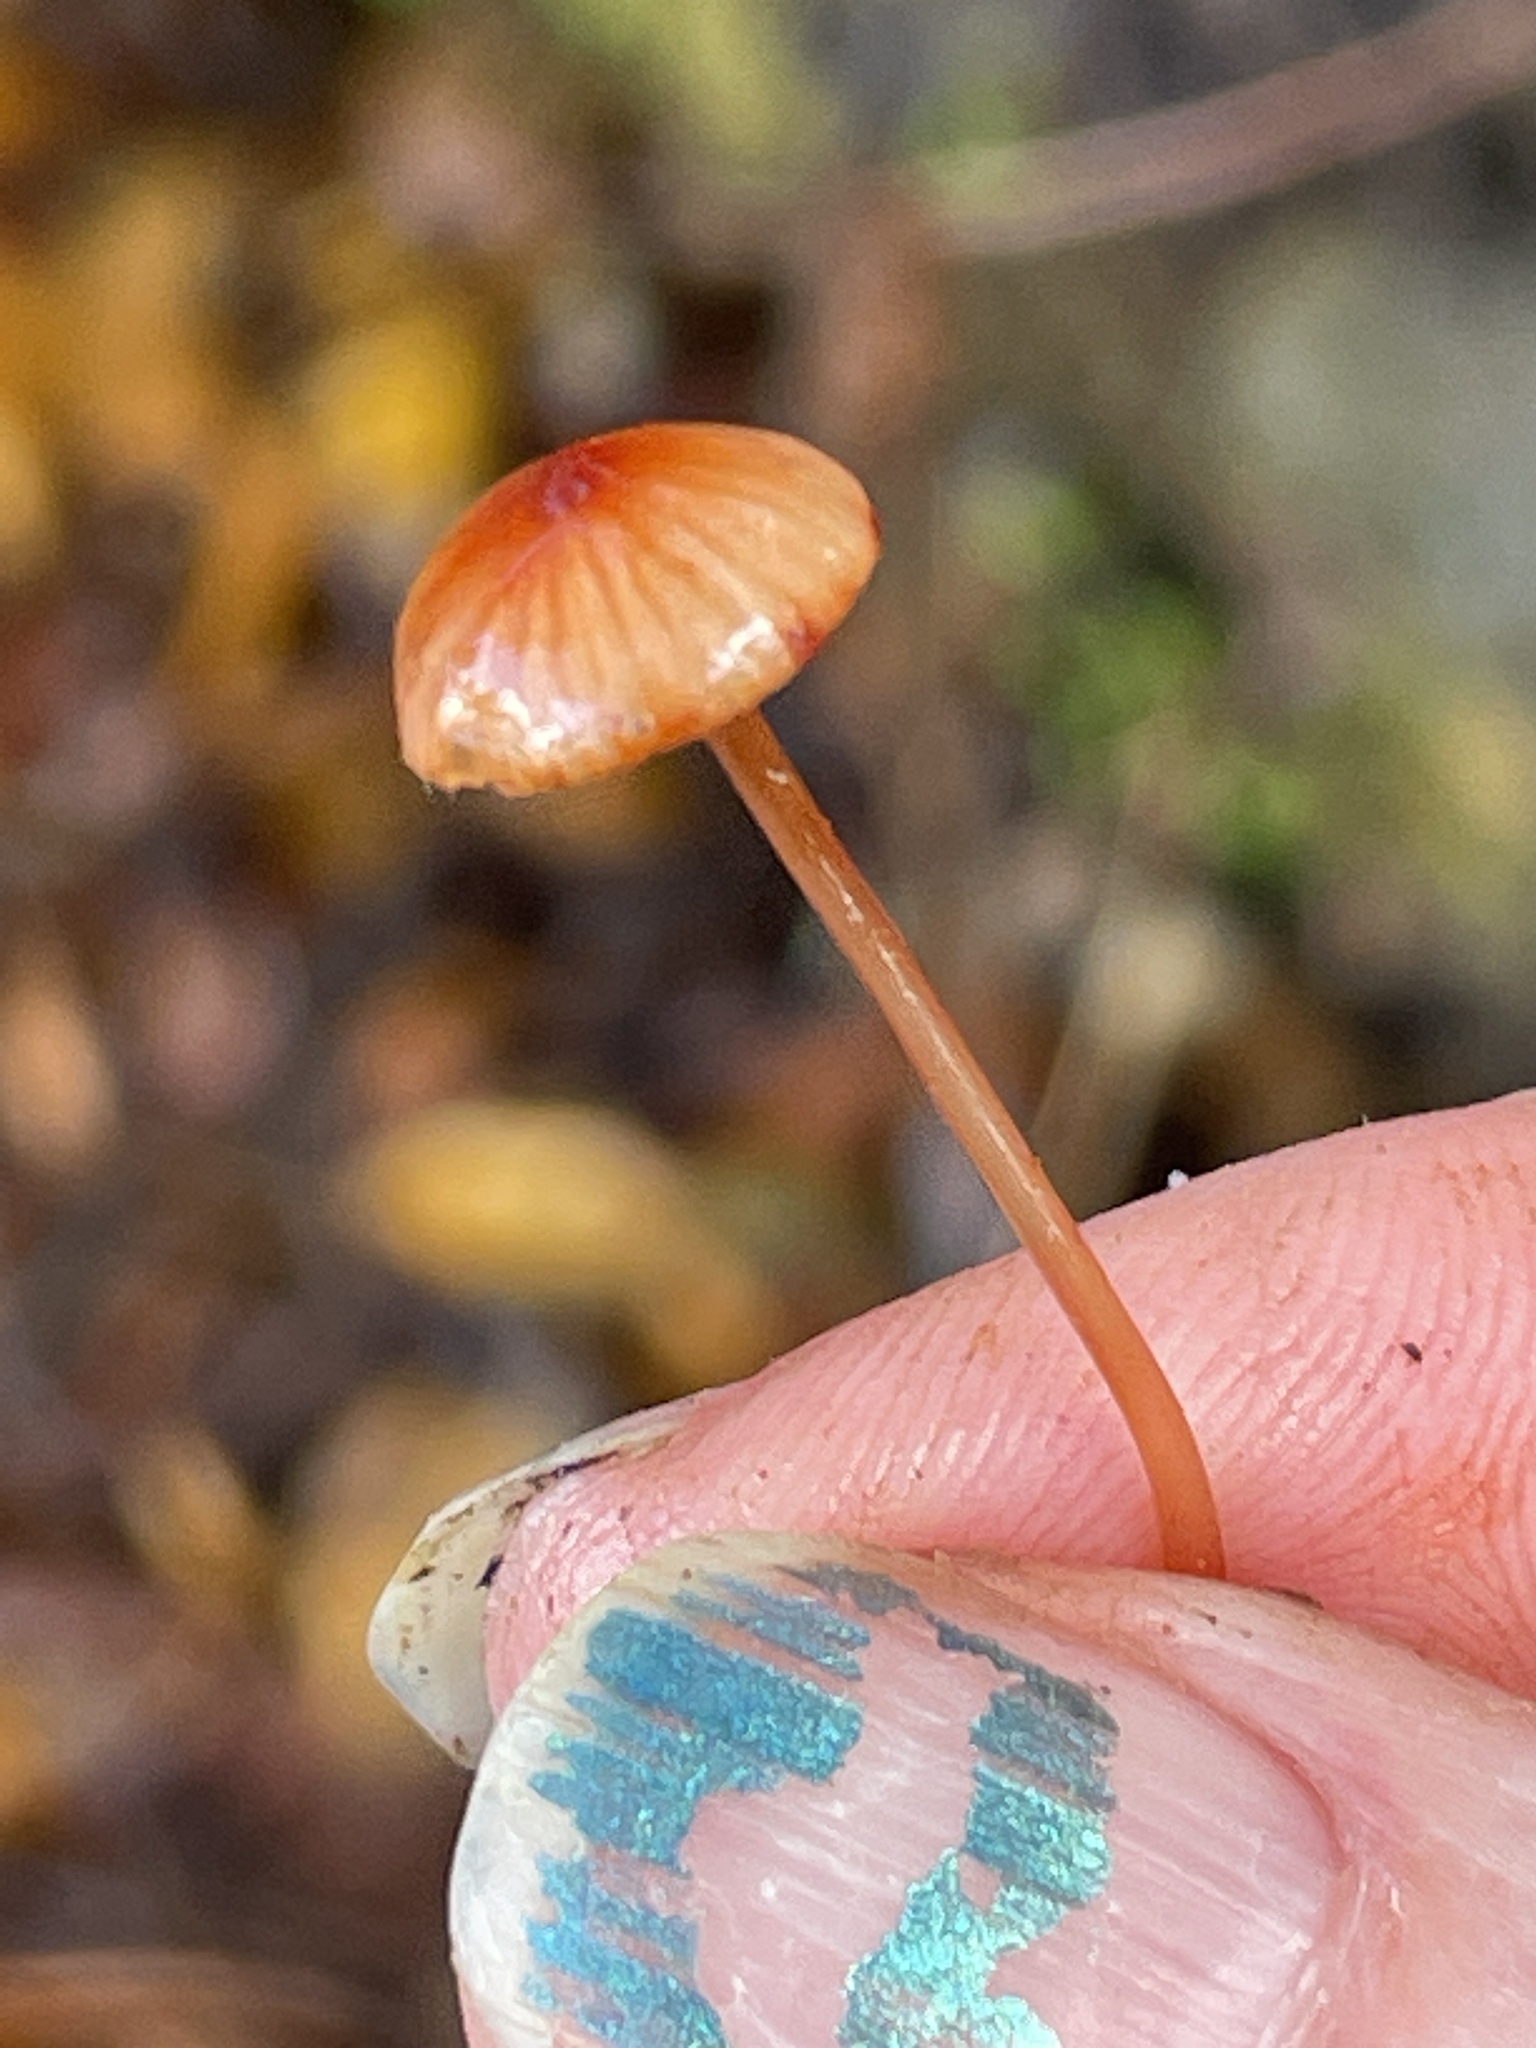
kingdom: Fungi
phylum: Basidiomycota
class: Agaricomycetes
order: Agaricales
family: Mycenaceae
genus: Mycena
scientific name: Mycena
